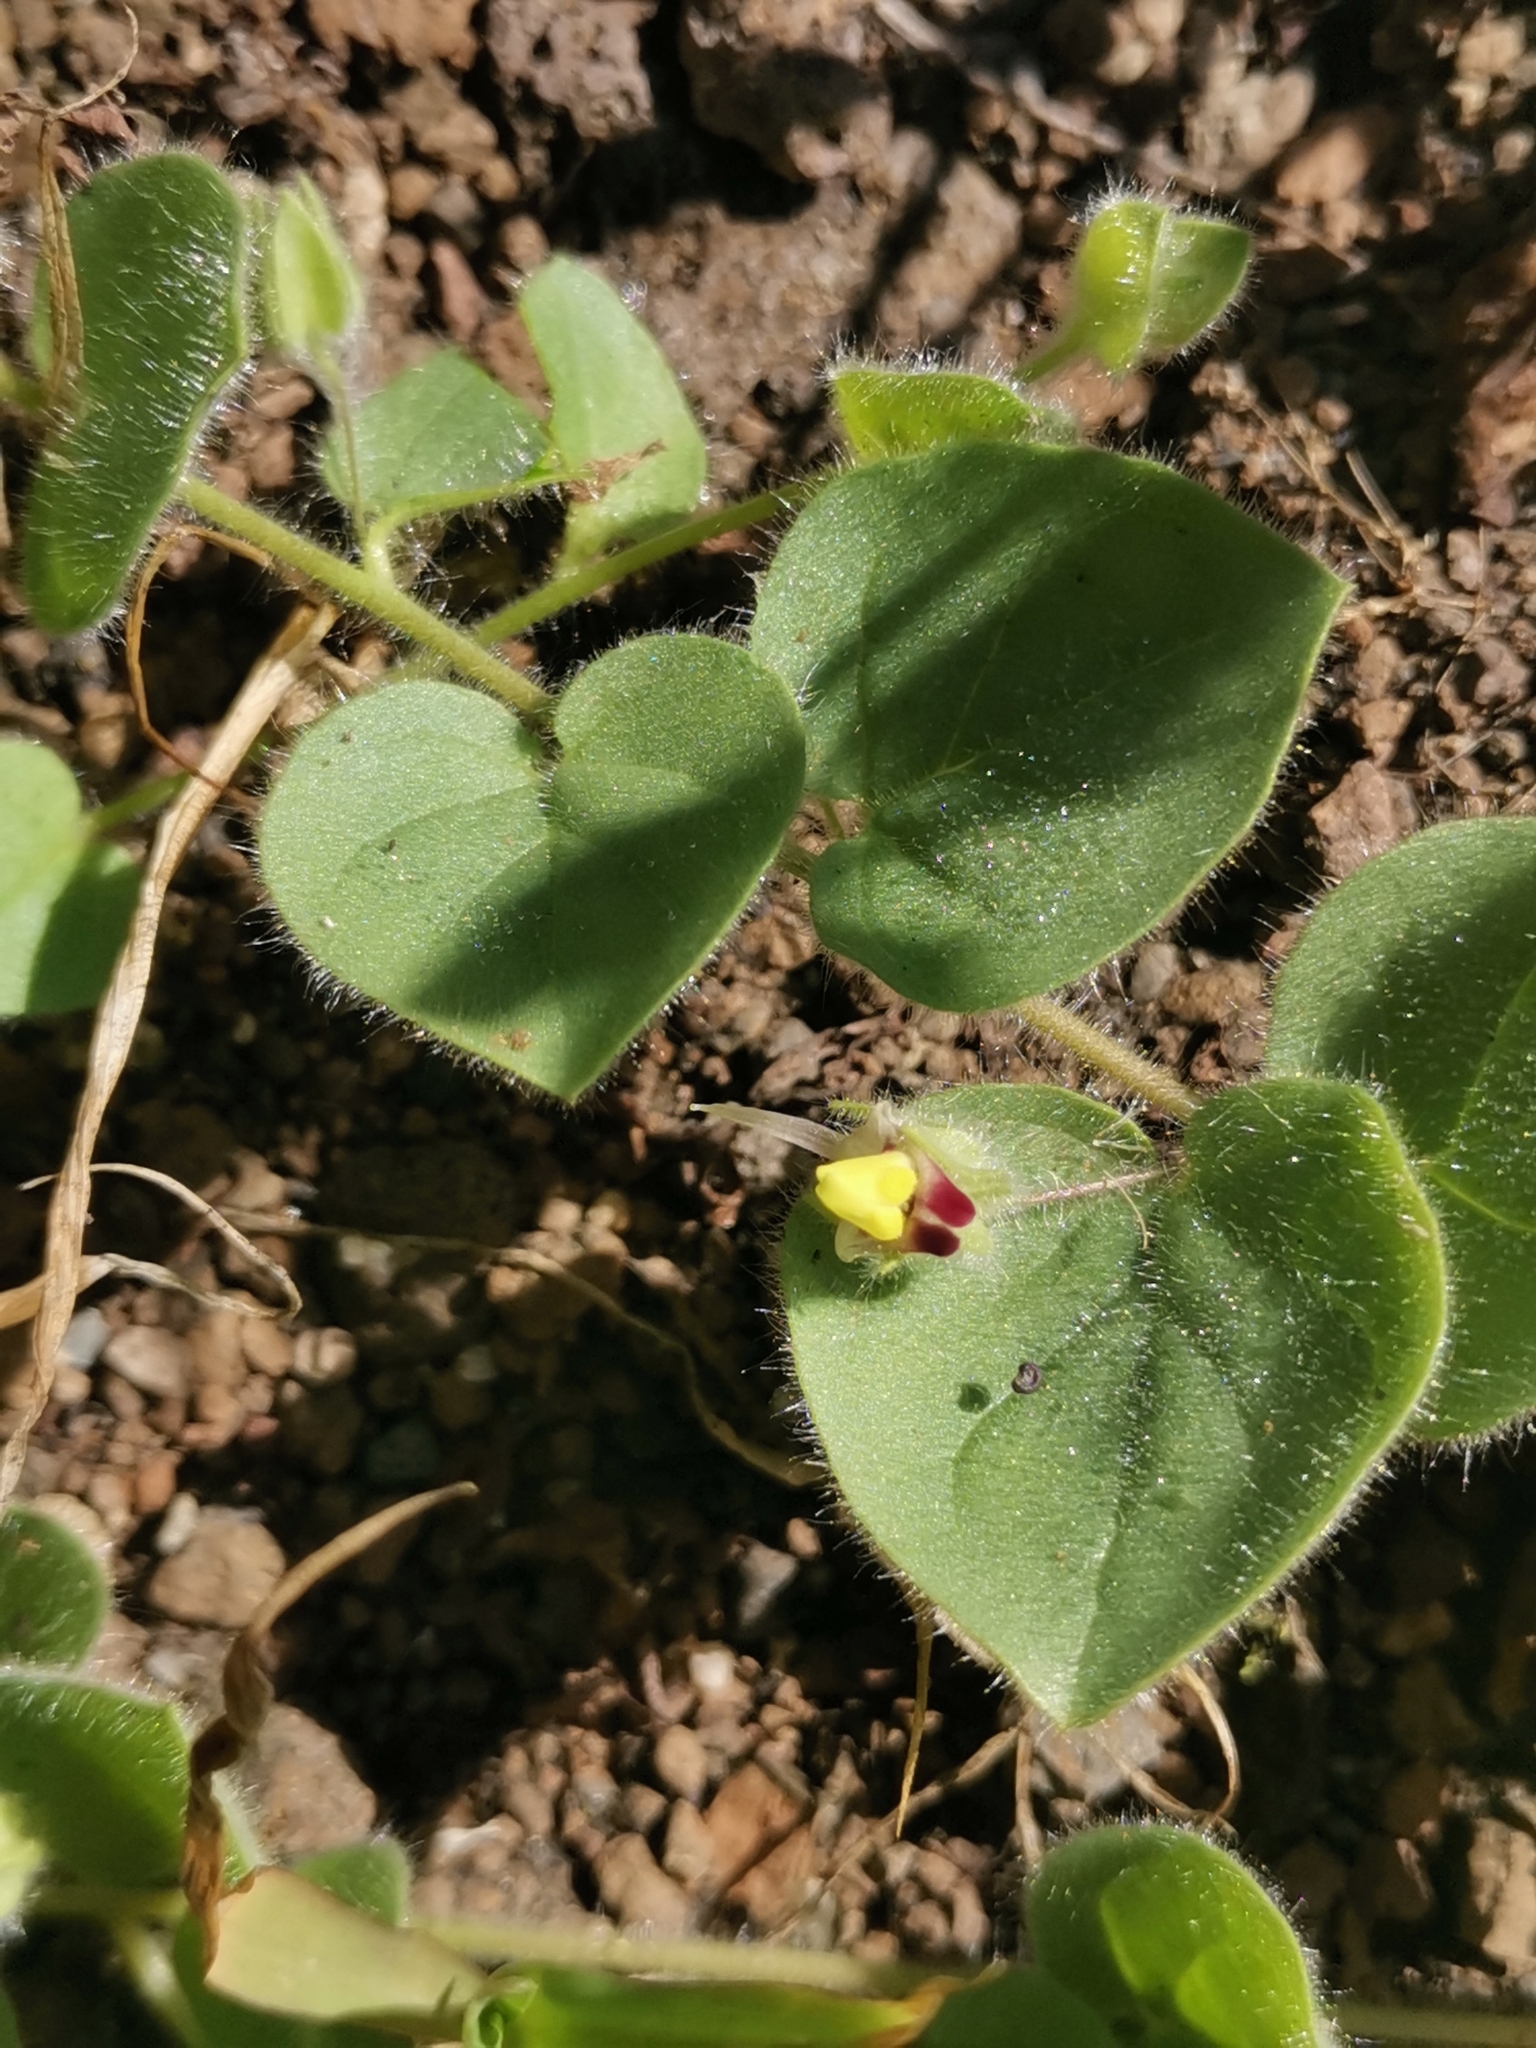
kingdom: Plantae
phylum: Tracheophyta
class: Magnoliopsida
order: Lamiales
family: Plantaginaceae
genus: Kickxia
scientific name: Kickxia spuria
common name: Round-leaved fluellen
